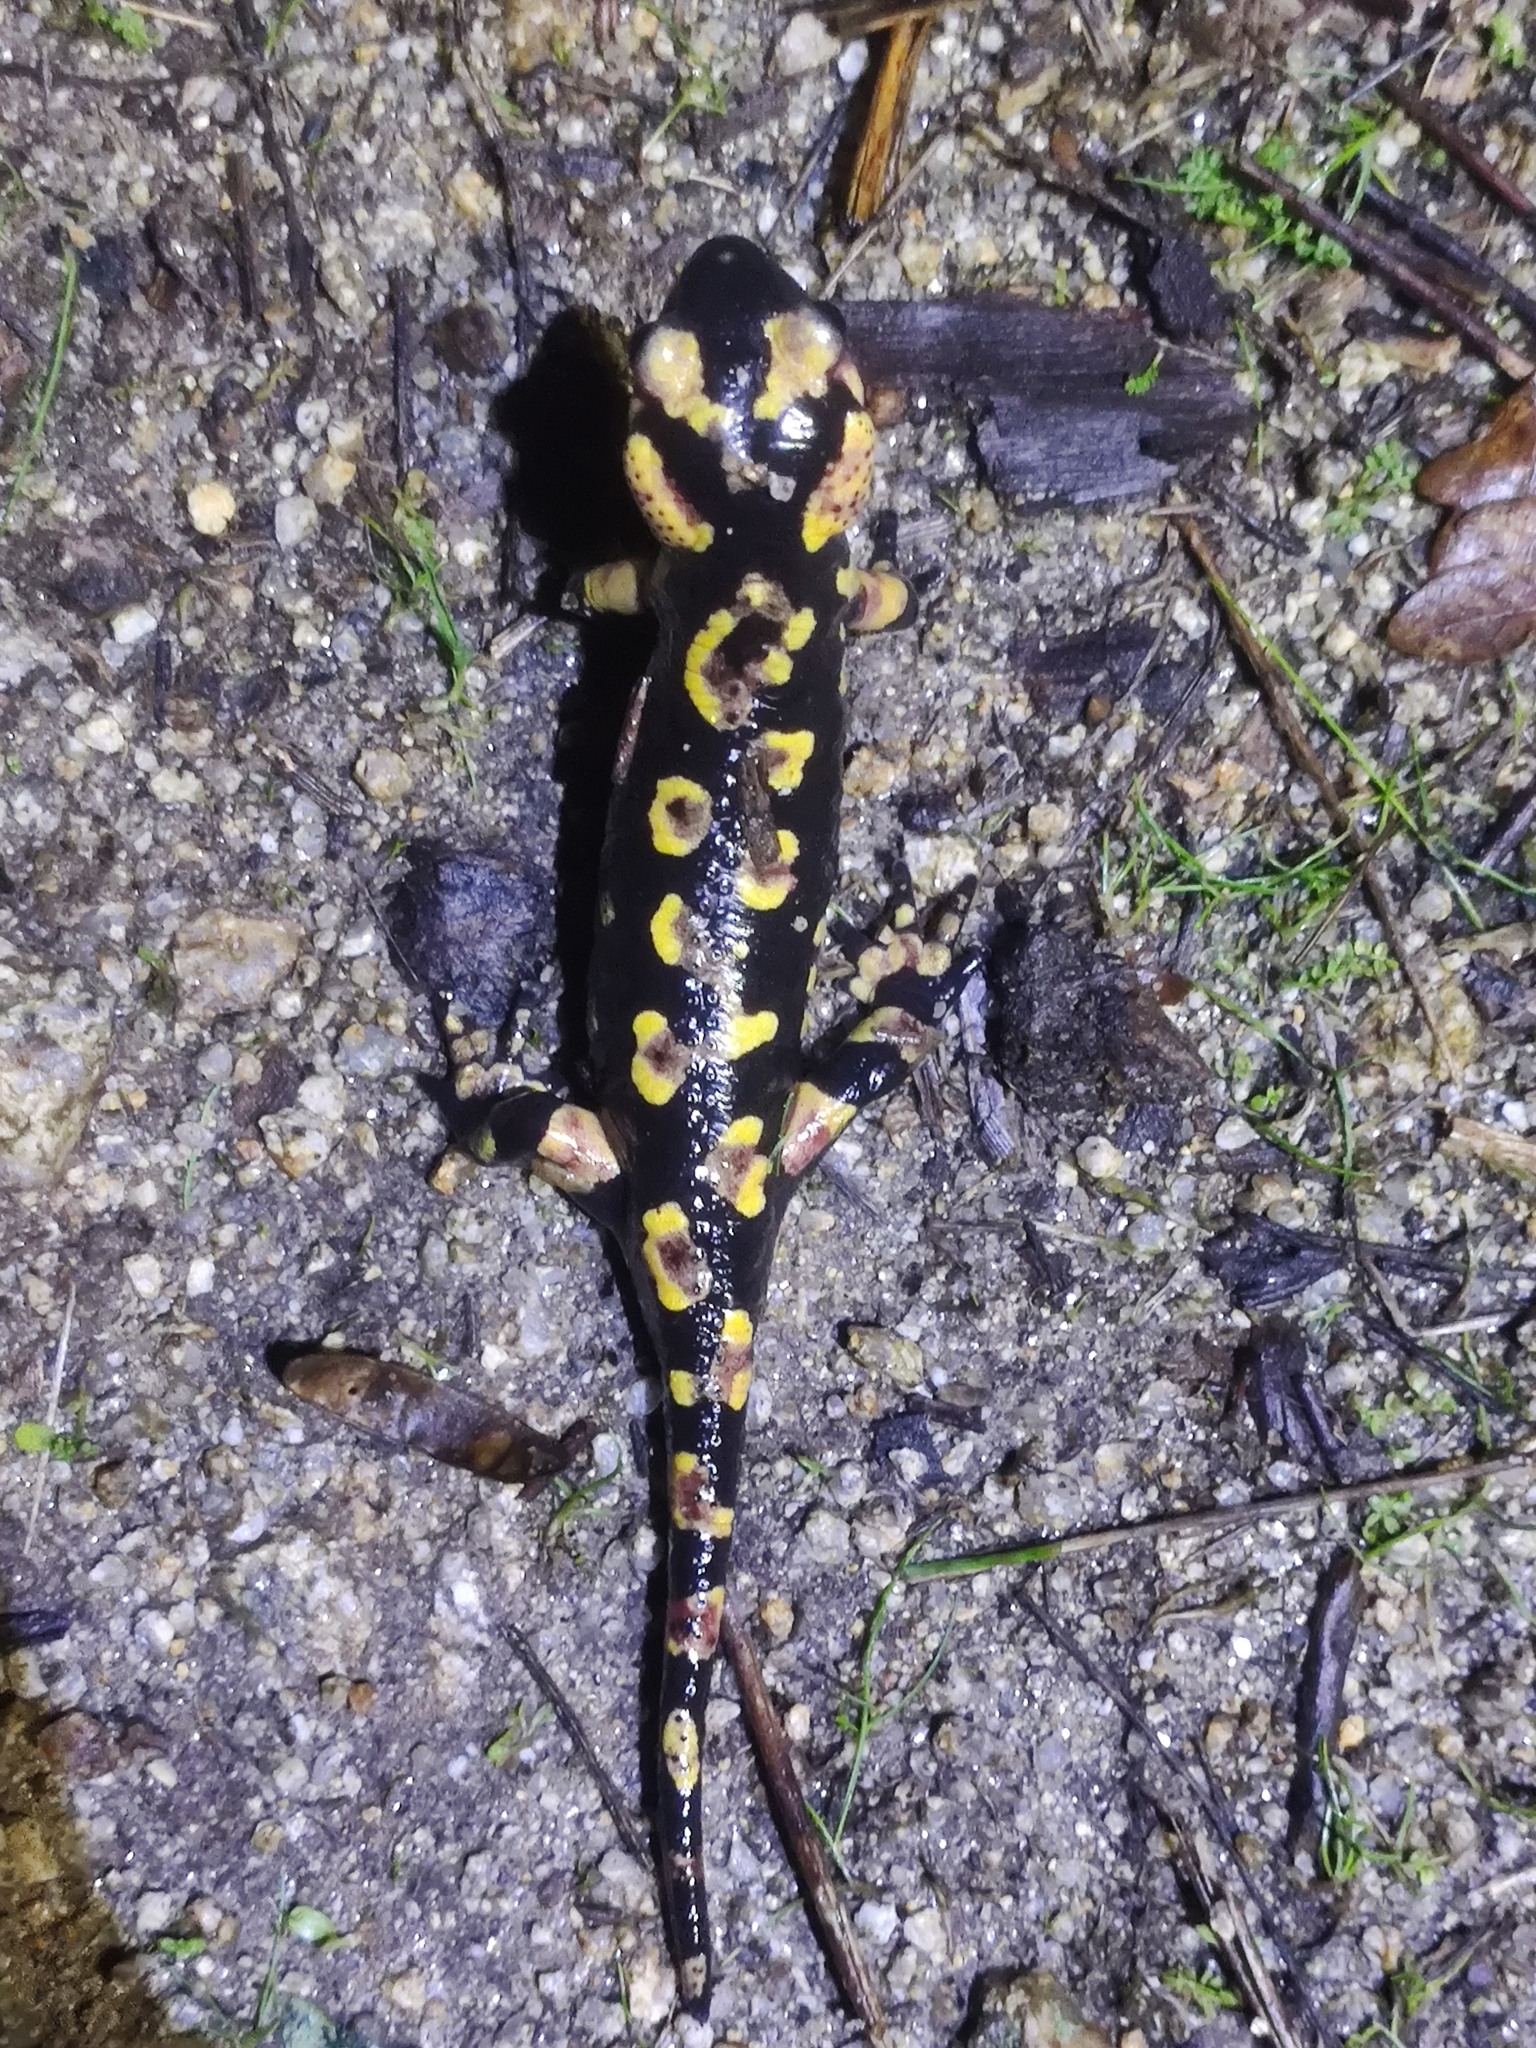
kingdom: Animalia
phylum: Chordata
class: Amphibia
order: Caudata
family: Salamandridae
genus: Salamandra
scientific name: Salamandra salamandra
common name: Fire salamander
